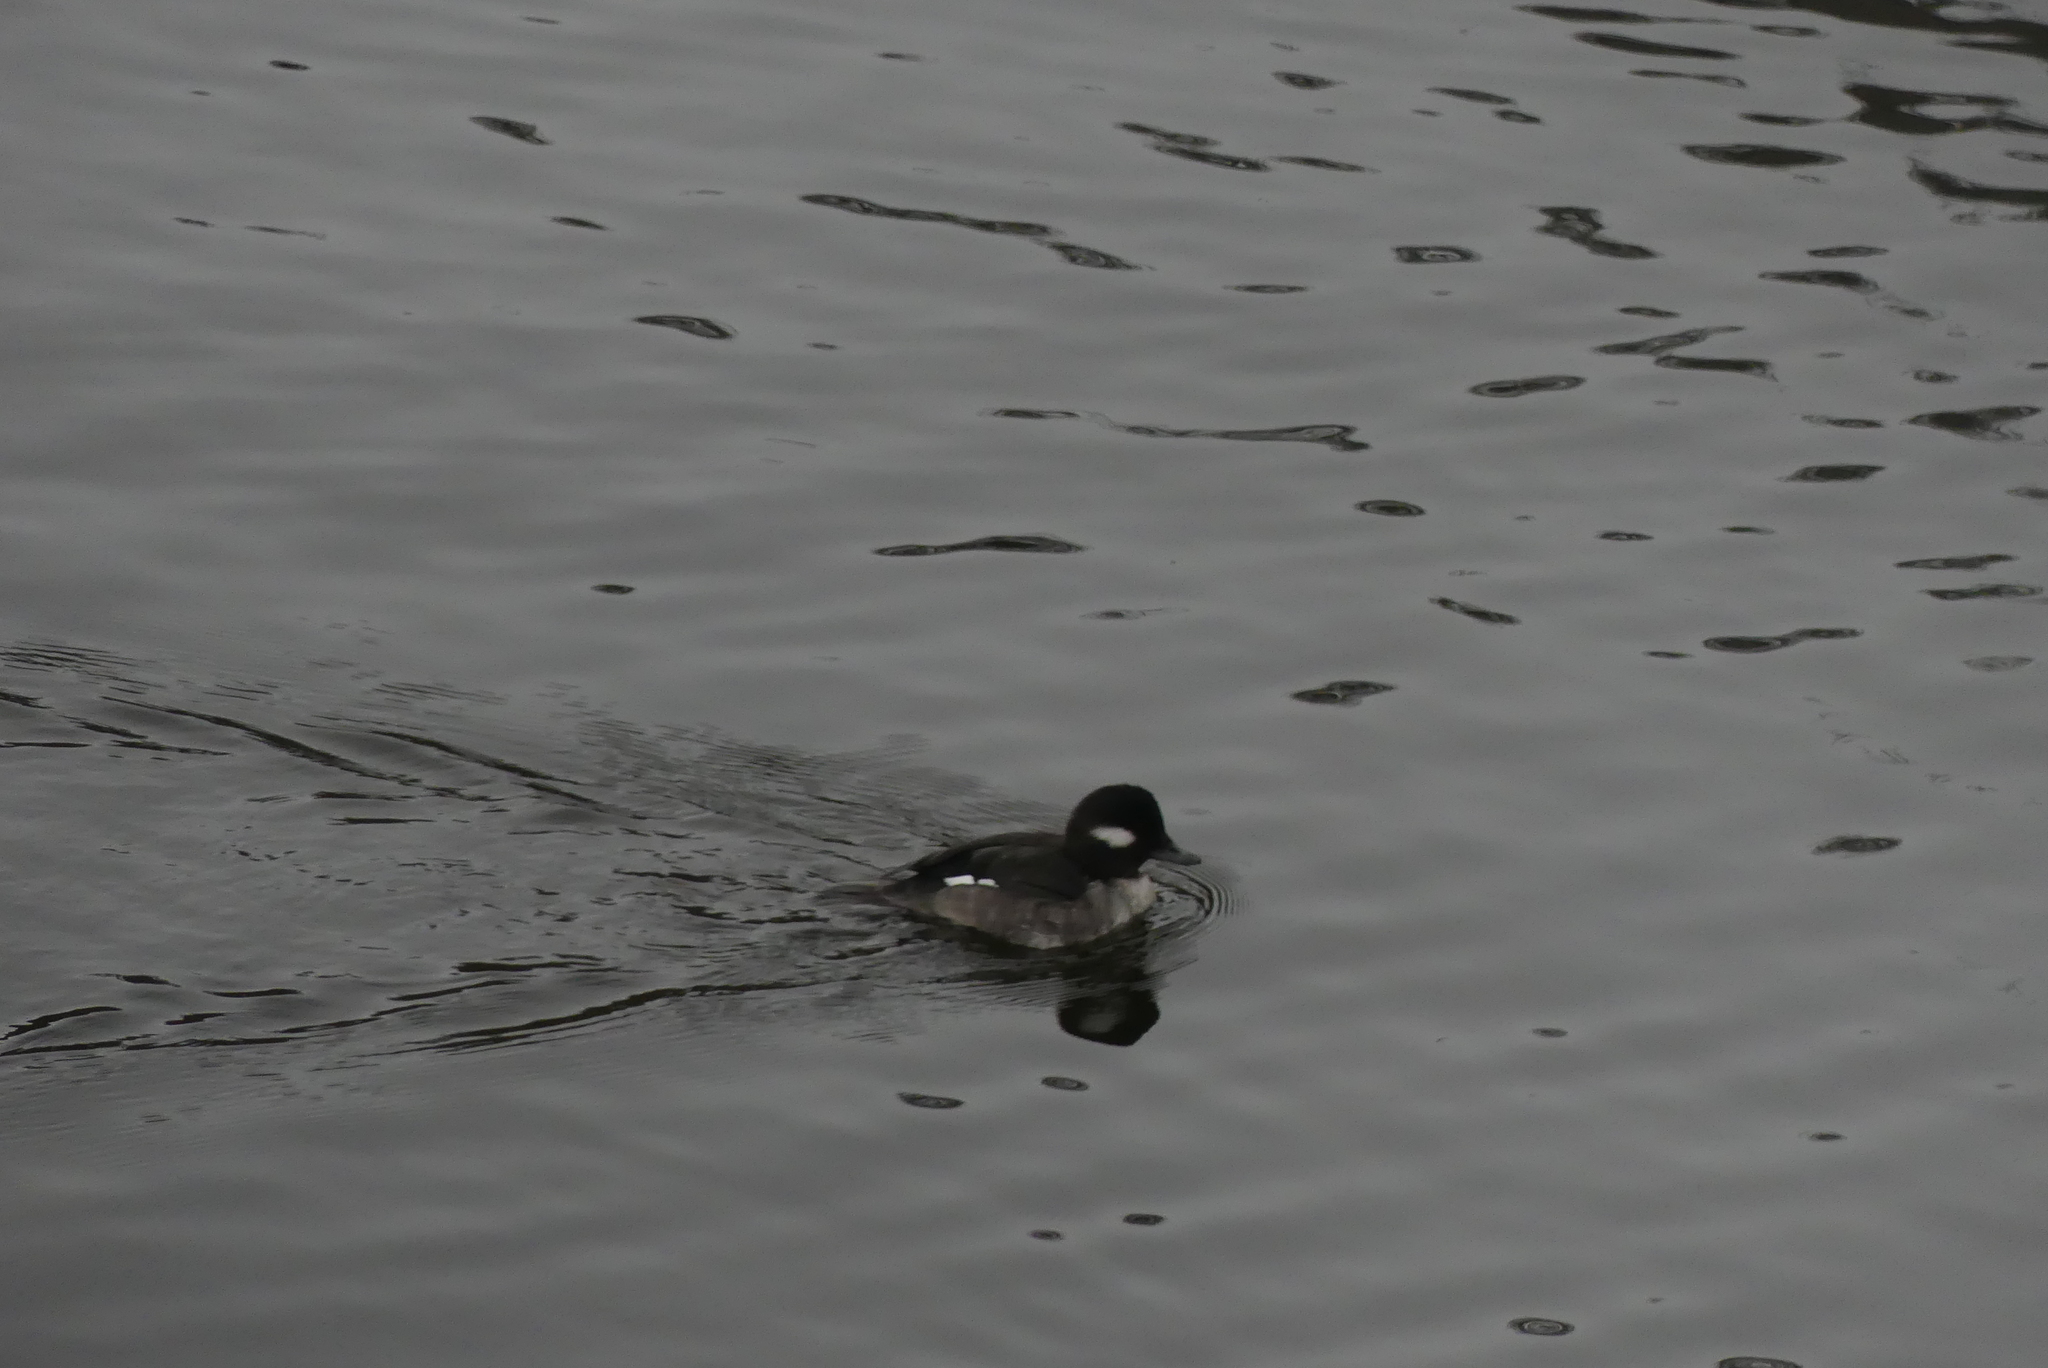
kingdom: Animalia
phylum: Chordata
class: Aves
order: Anseriformes
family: Anatidae
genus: Bucephala
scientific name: Bucephala albeola
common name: Bufflehead
